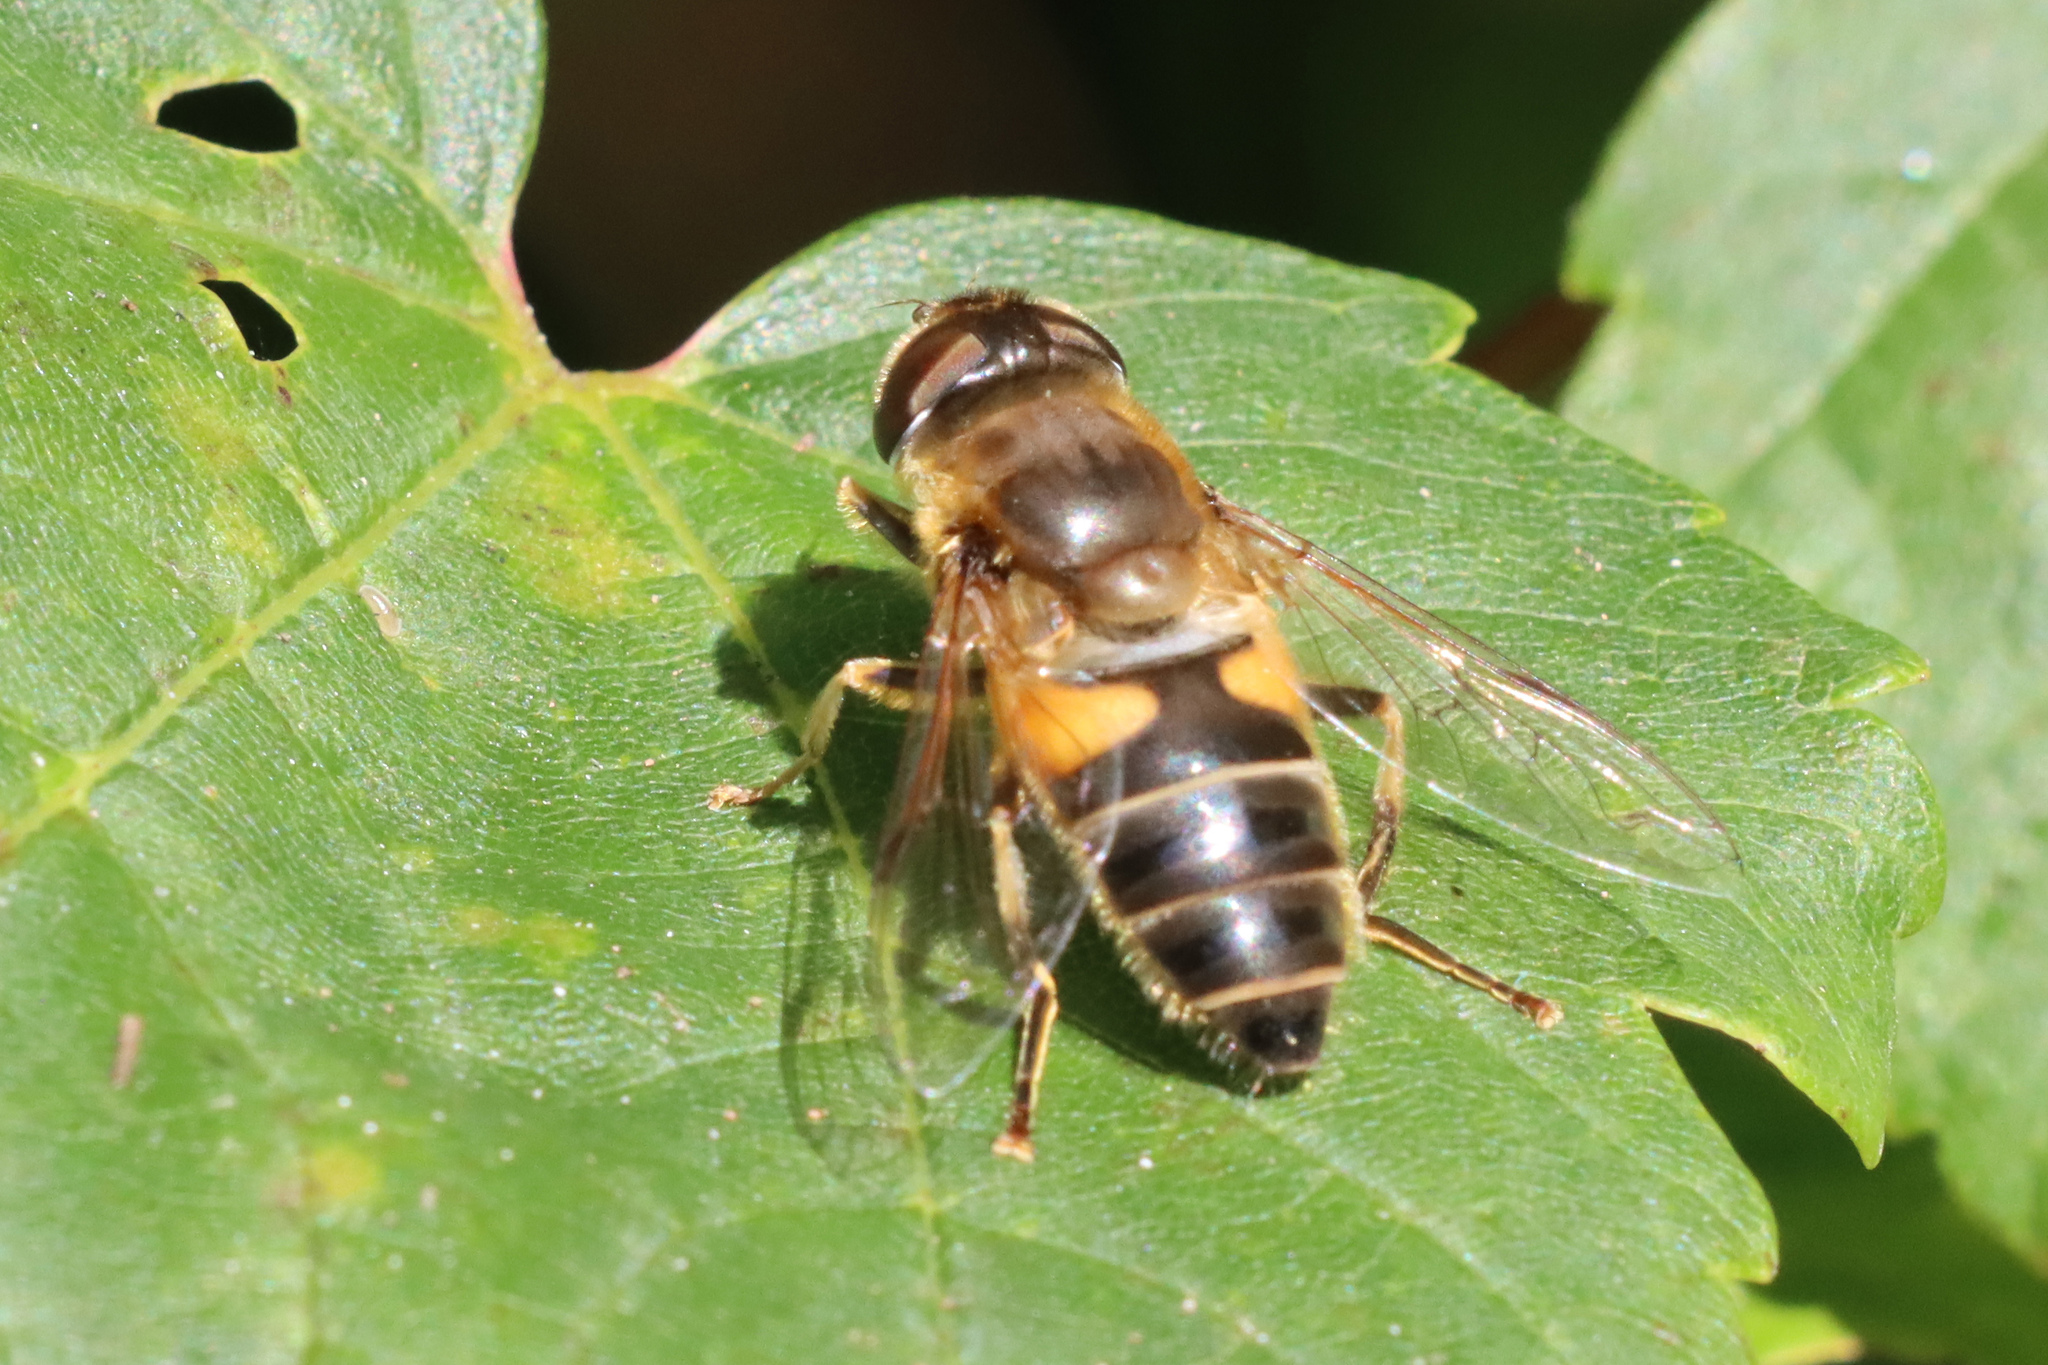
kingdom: Animalia
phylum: Arthropoda
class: Insecta
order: Diptera
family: Syrphidae
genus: Eristalis
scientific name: Eristalis pertinax
